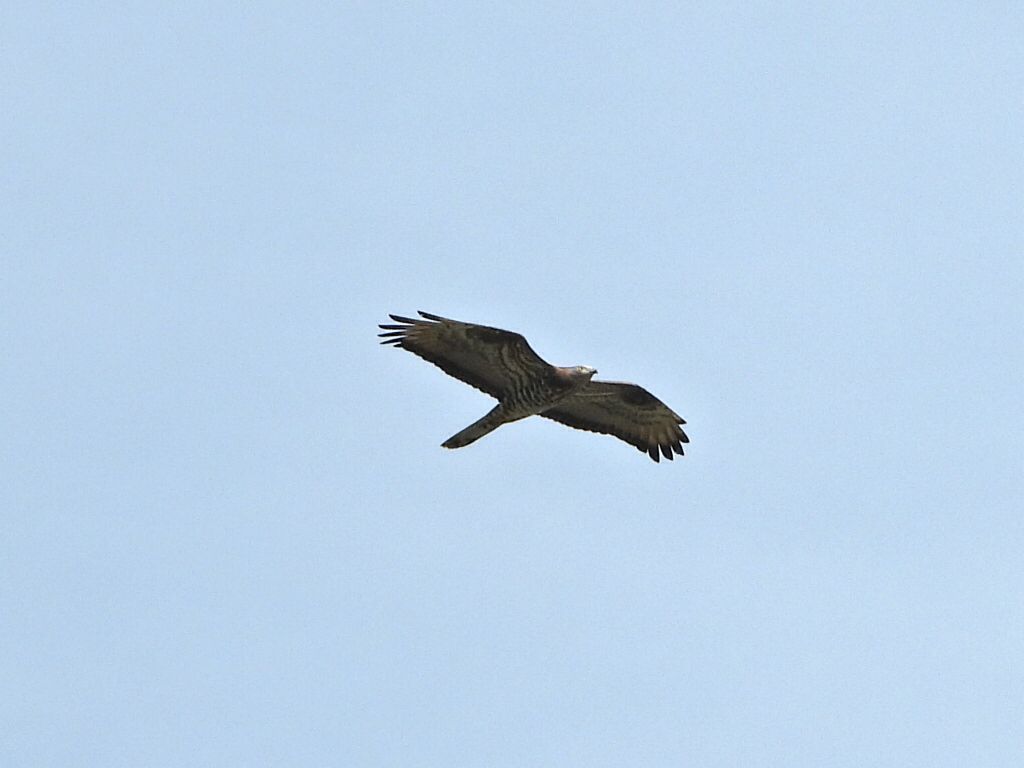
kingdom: Animalia
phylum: Chordata
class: Aves
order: Accipitriformes
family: Accipitridae
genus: Pernis
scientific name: Pernis apivorus
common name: European honey buzzard
